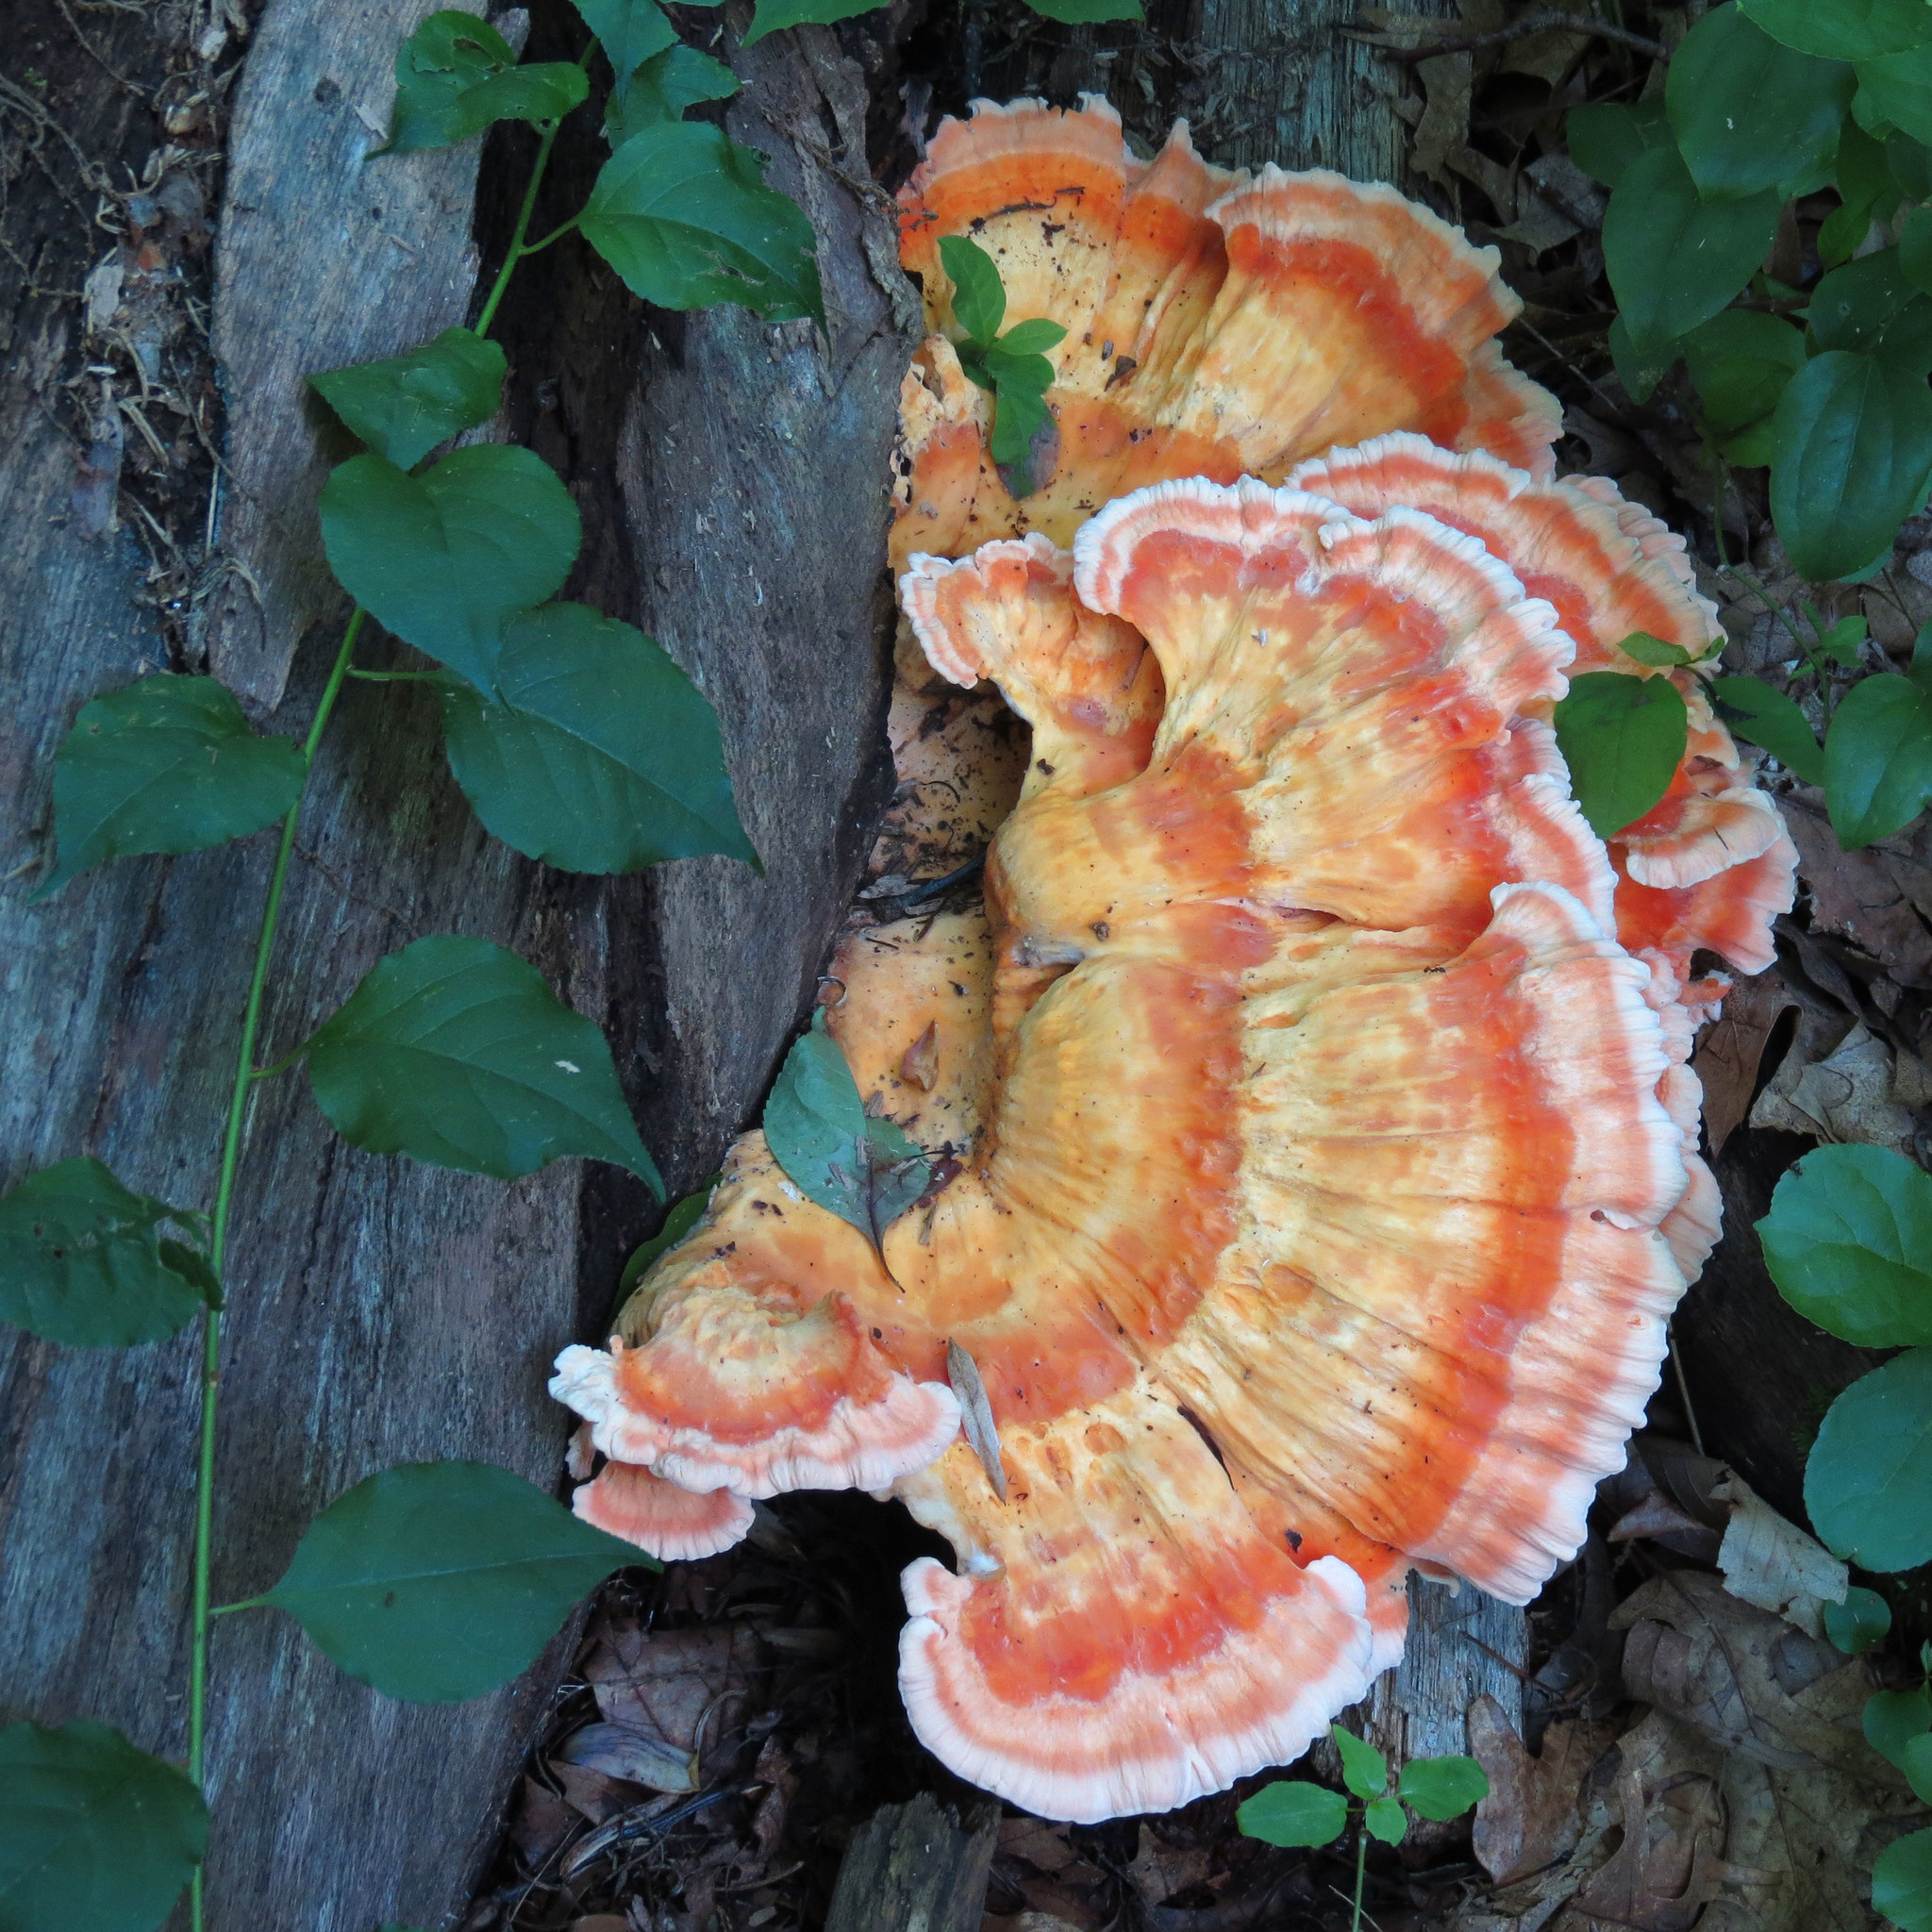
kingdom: Fungi
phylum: Basidiomycota
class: Agaricomycetes
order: Polyporales
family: Laetiporaceae
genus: Laetiporus
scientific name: Laetiporus sulphureus
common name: Chicken of the woods
